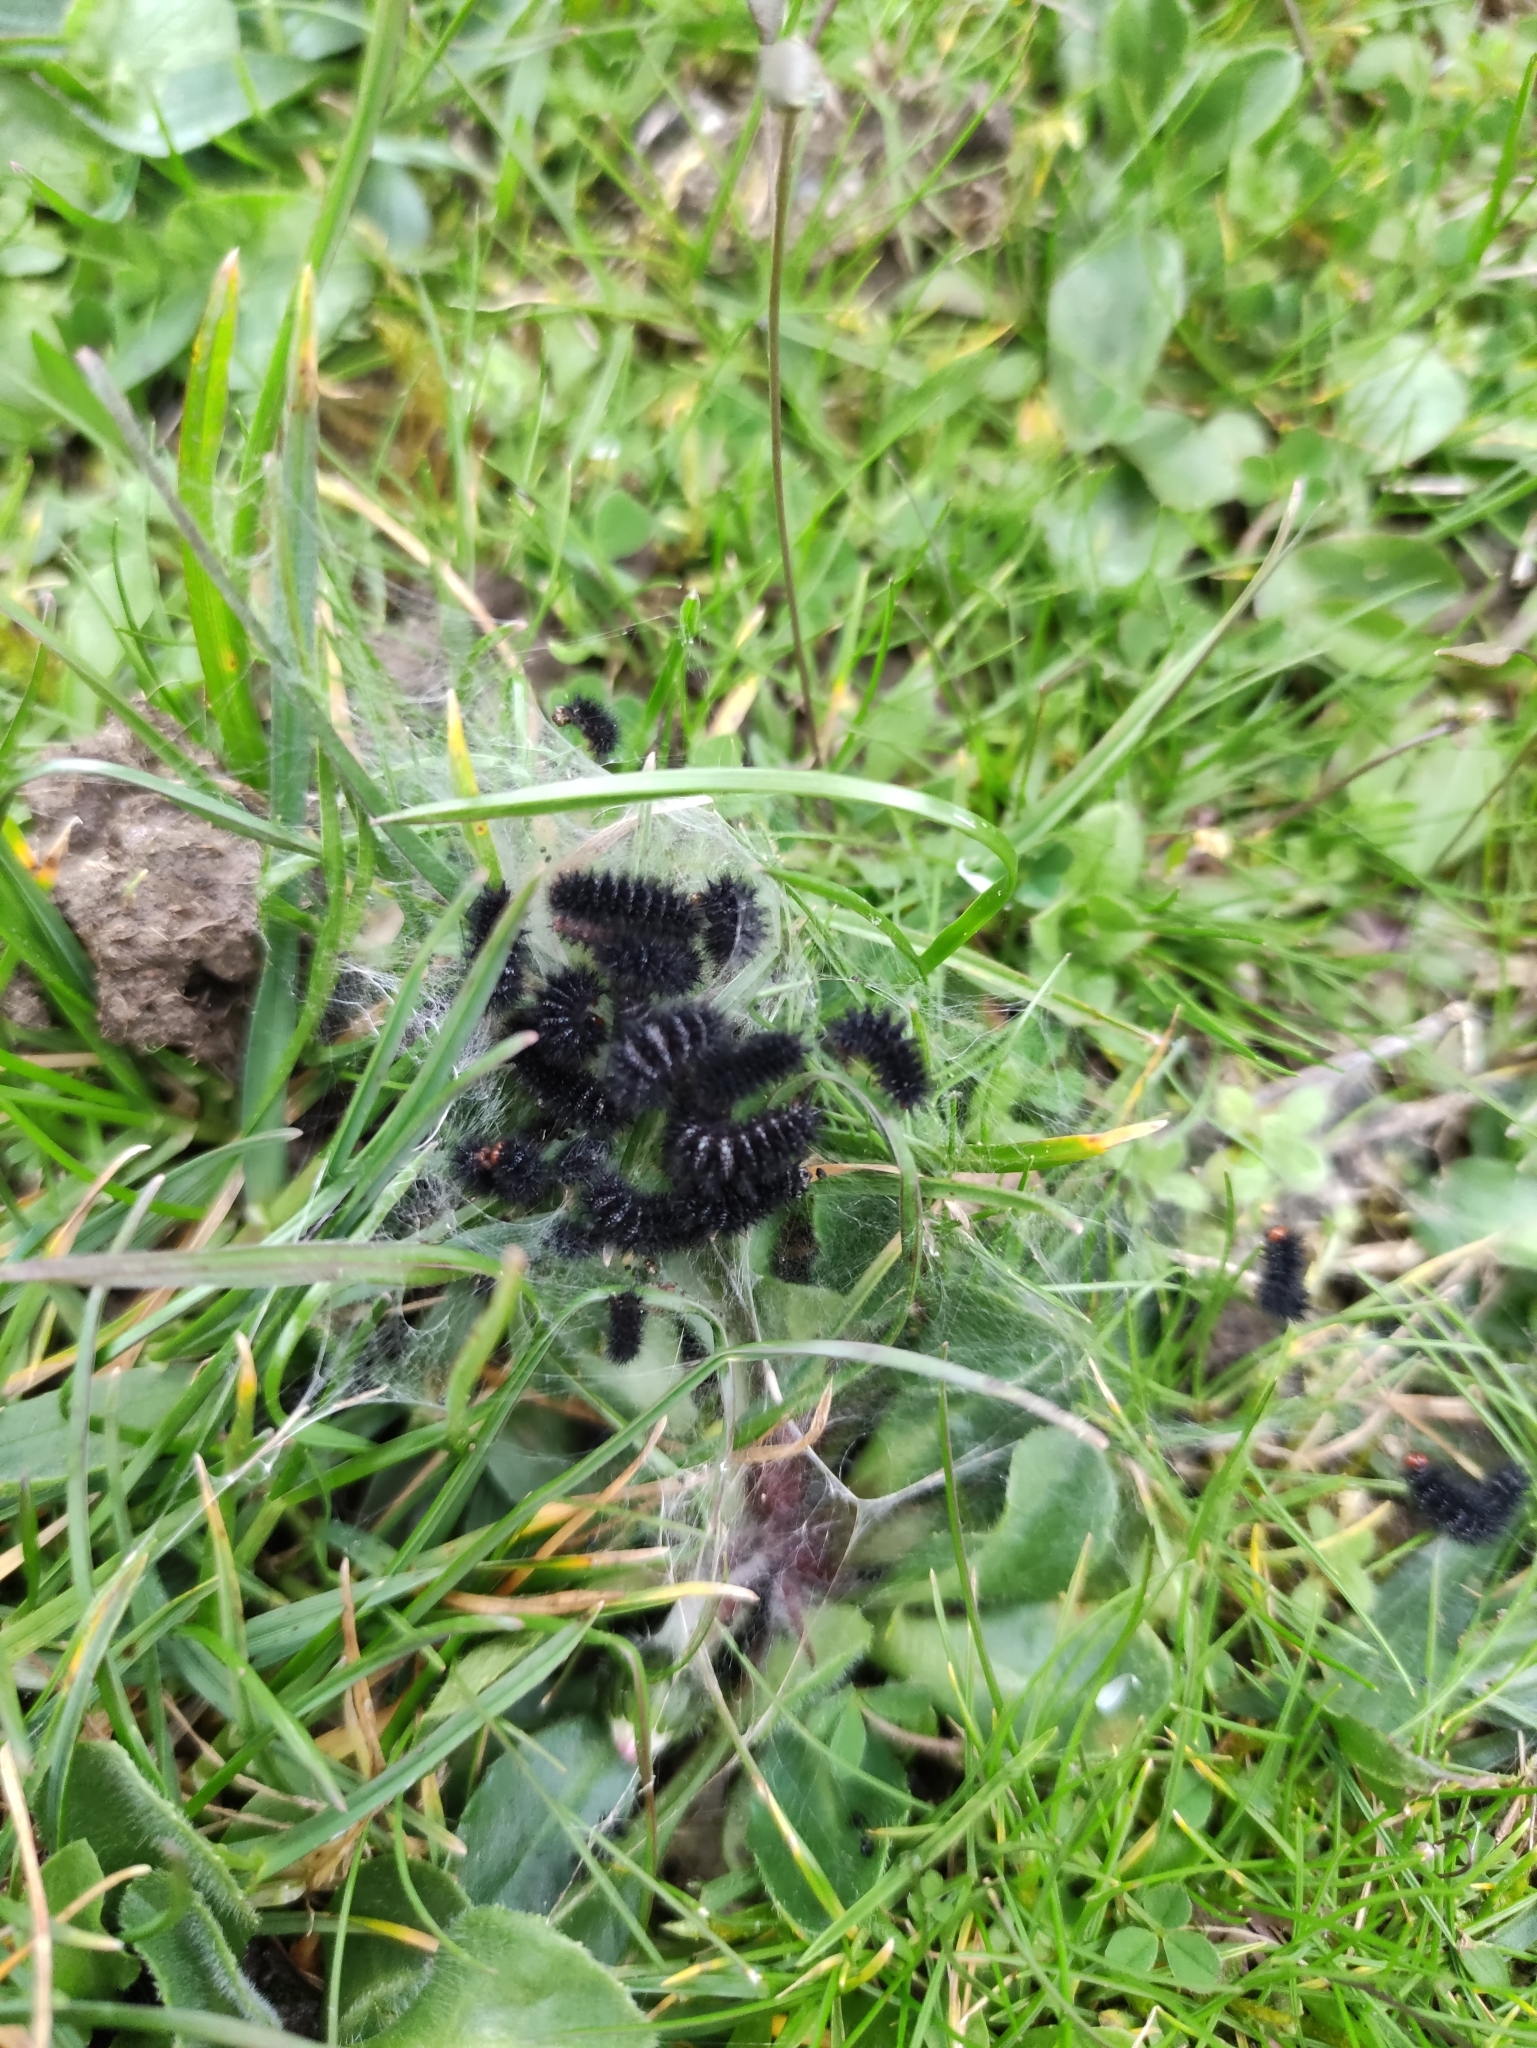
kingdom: Animalia
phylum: Arthropoda
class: Insecta
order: Lepidoptera
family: Nymphalidae
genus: Melitaea
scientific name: Melitaea cinxia
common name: Glanville fritillary
